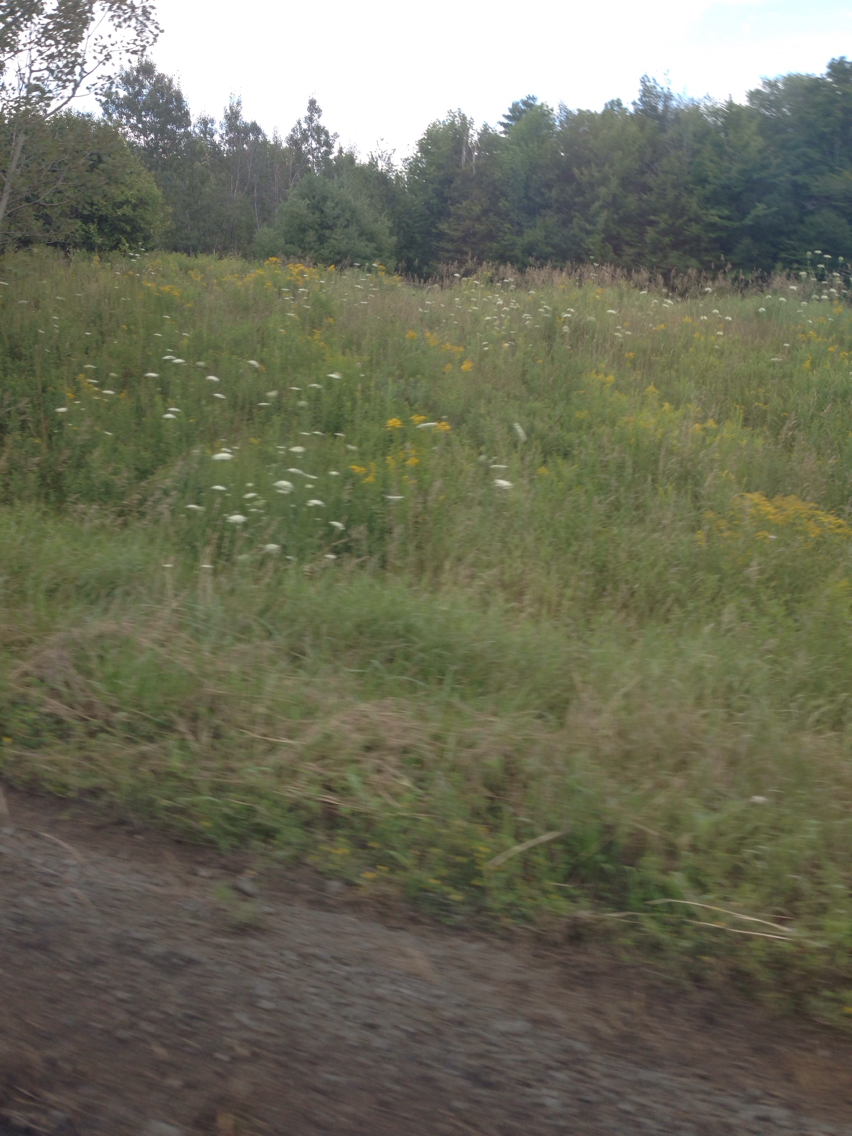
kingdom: Plantae
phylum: Tracheophyta
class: Magnoliopsida
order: Apiales
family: Apiaceae
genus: Daucus
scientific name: Daucus carota
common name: Wild carrot
